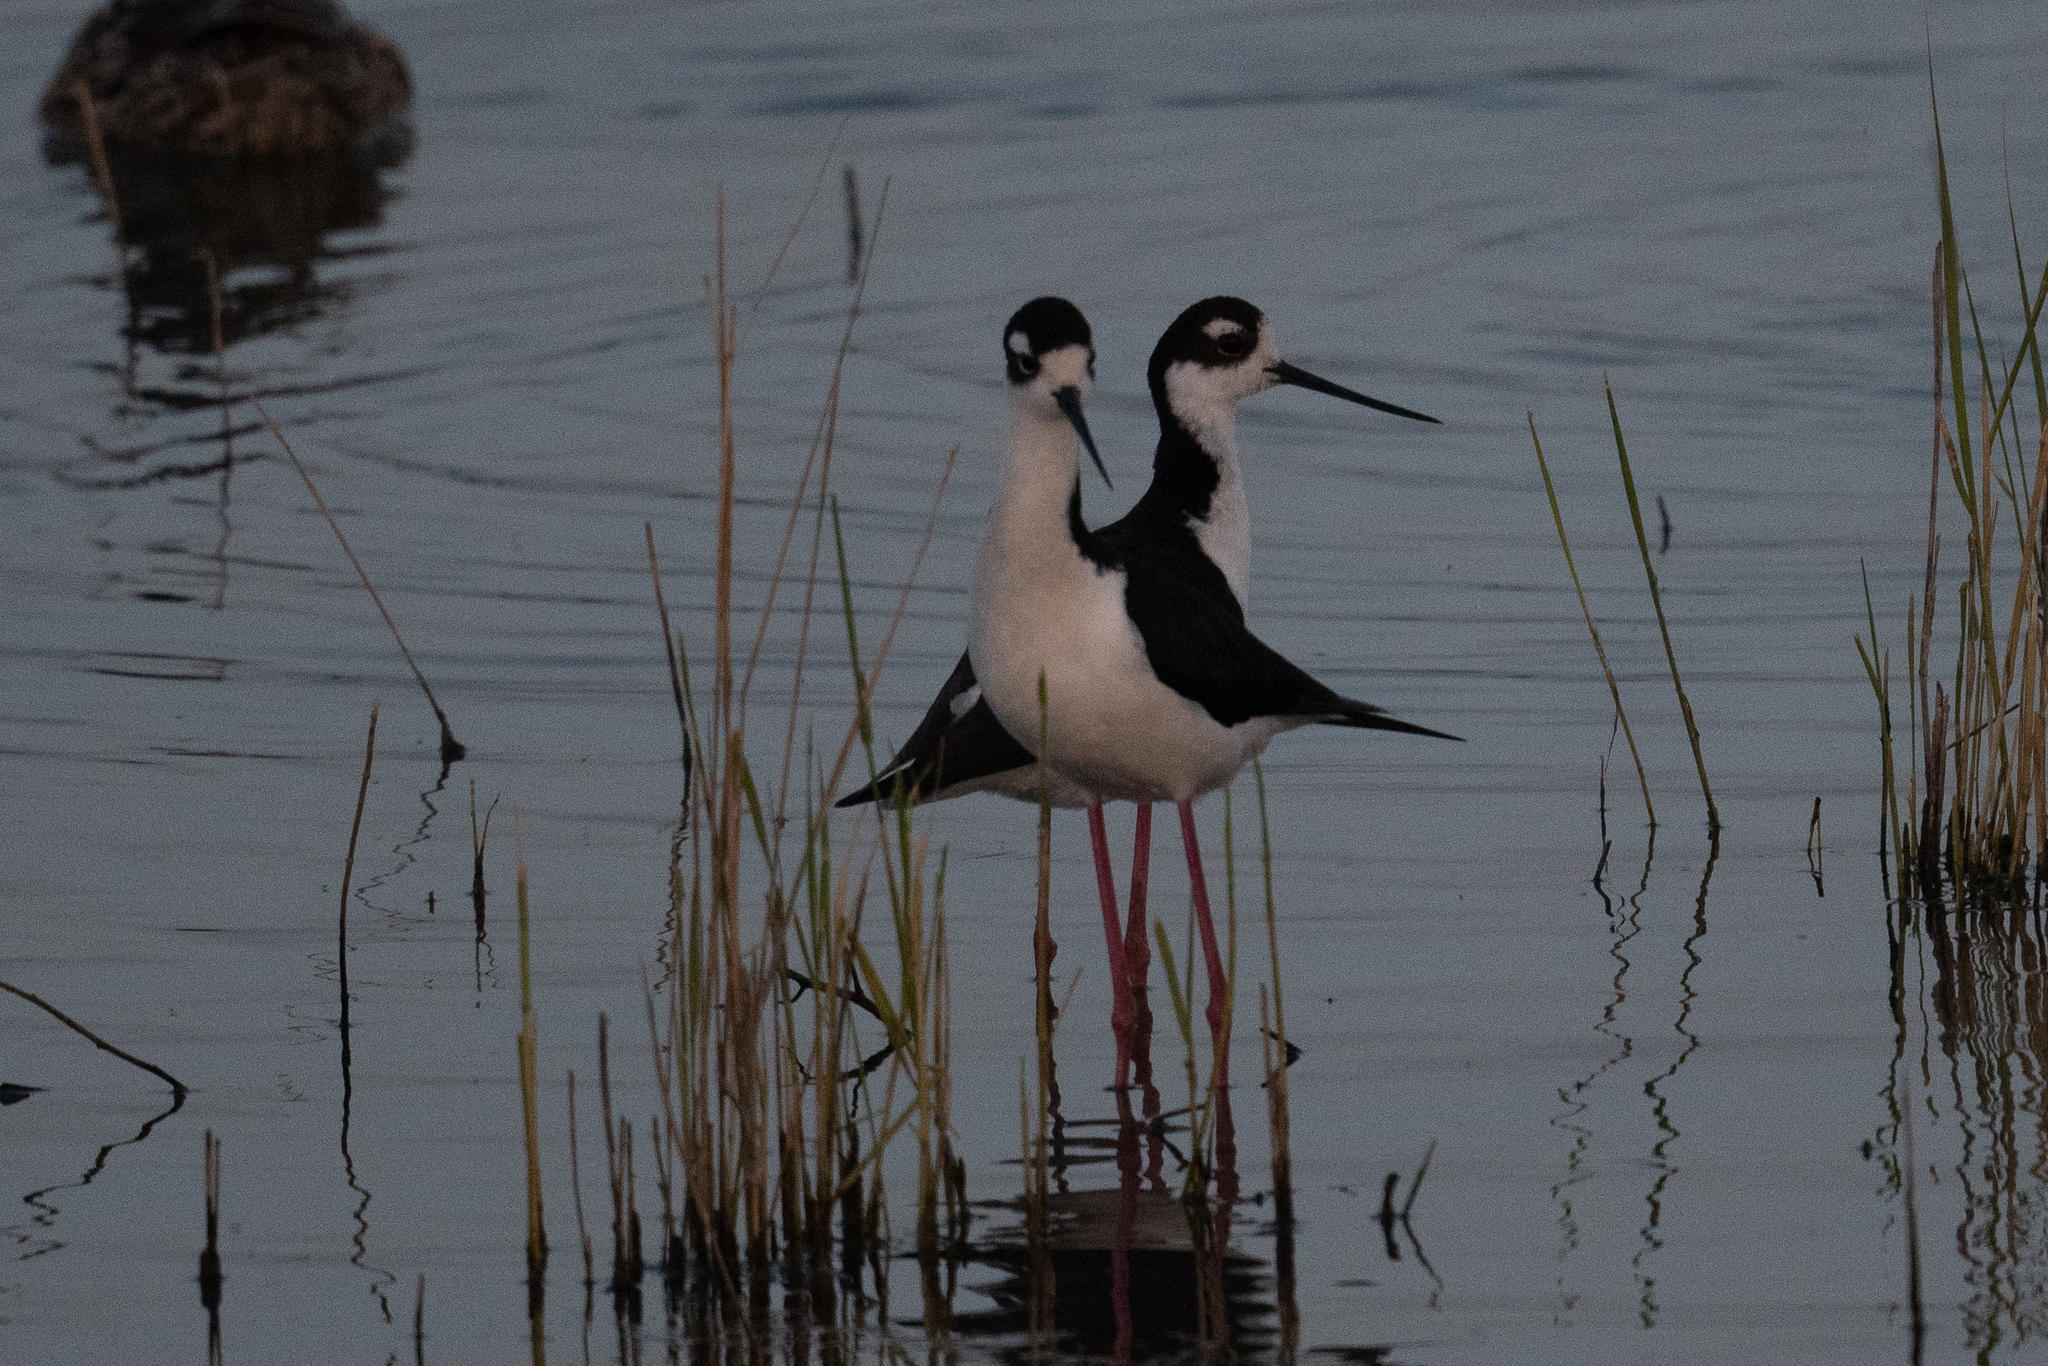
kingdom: Animalia
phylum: Chordata
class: Aves
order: Charadriiformes
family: Recurvirostridae
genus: Himantopus
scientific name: Himantopus mexicanus
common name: Black-necked stilt
